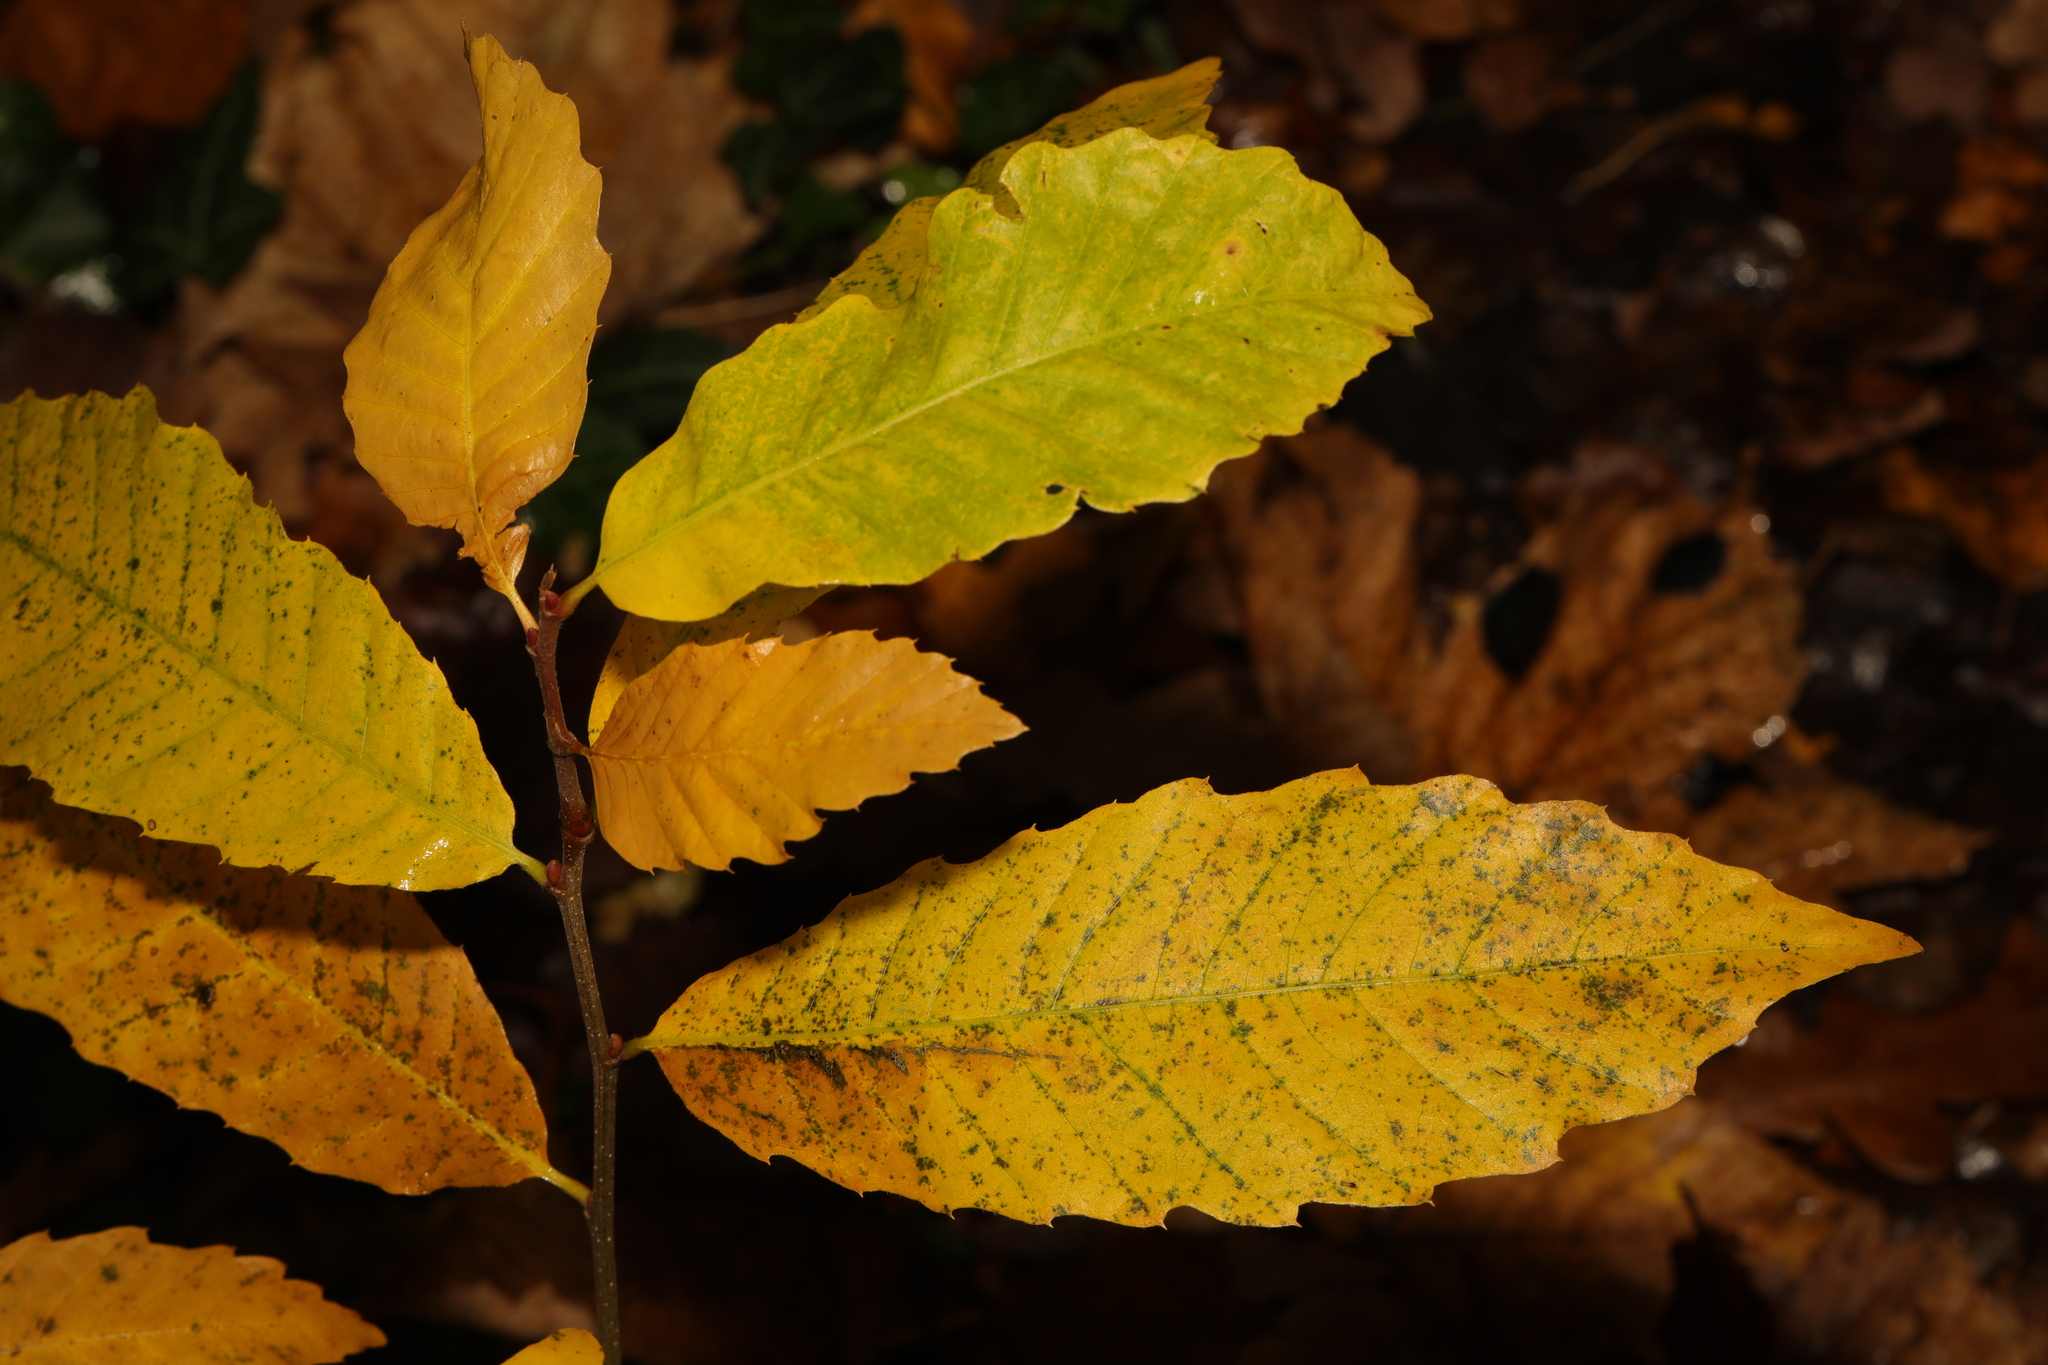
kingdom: Plantae
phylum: Tracheophyta
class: Magnoliopsida
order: Fagales
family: Fagaceae
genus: Castanea
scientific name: Castanea sativa
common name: Sweet chestnut
